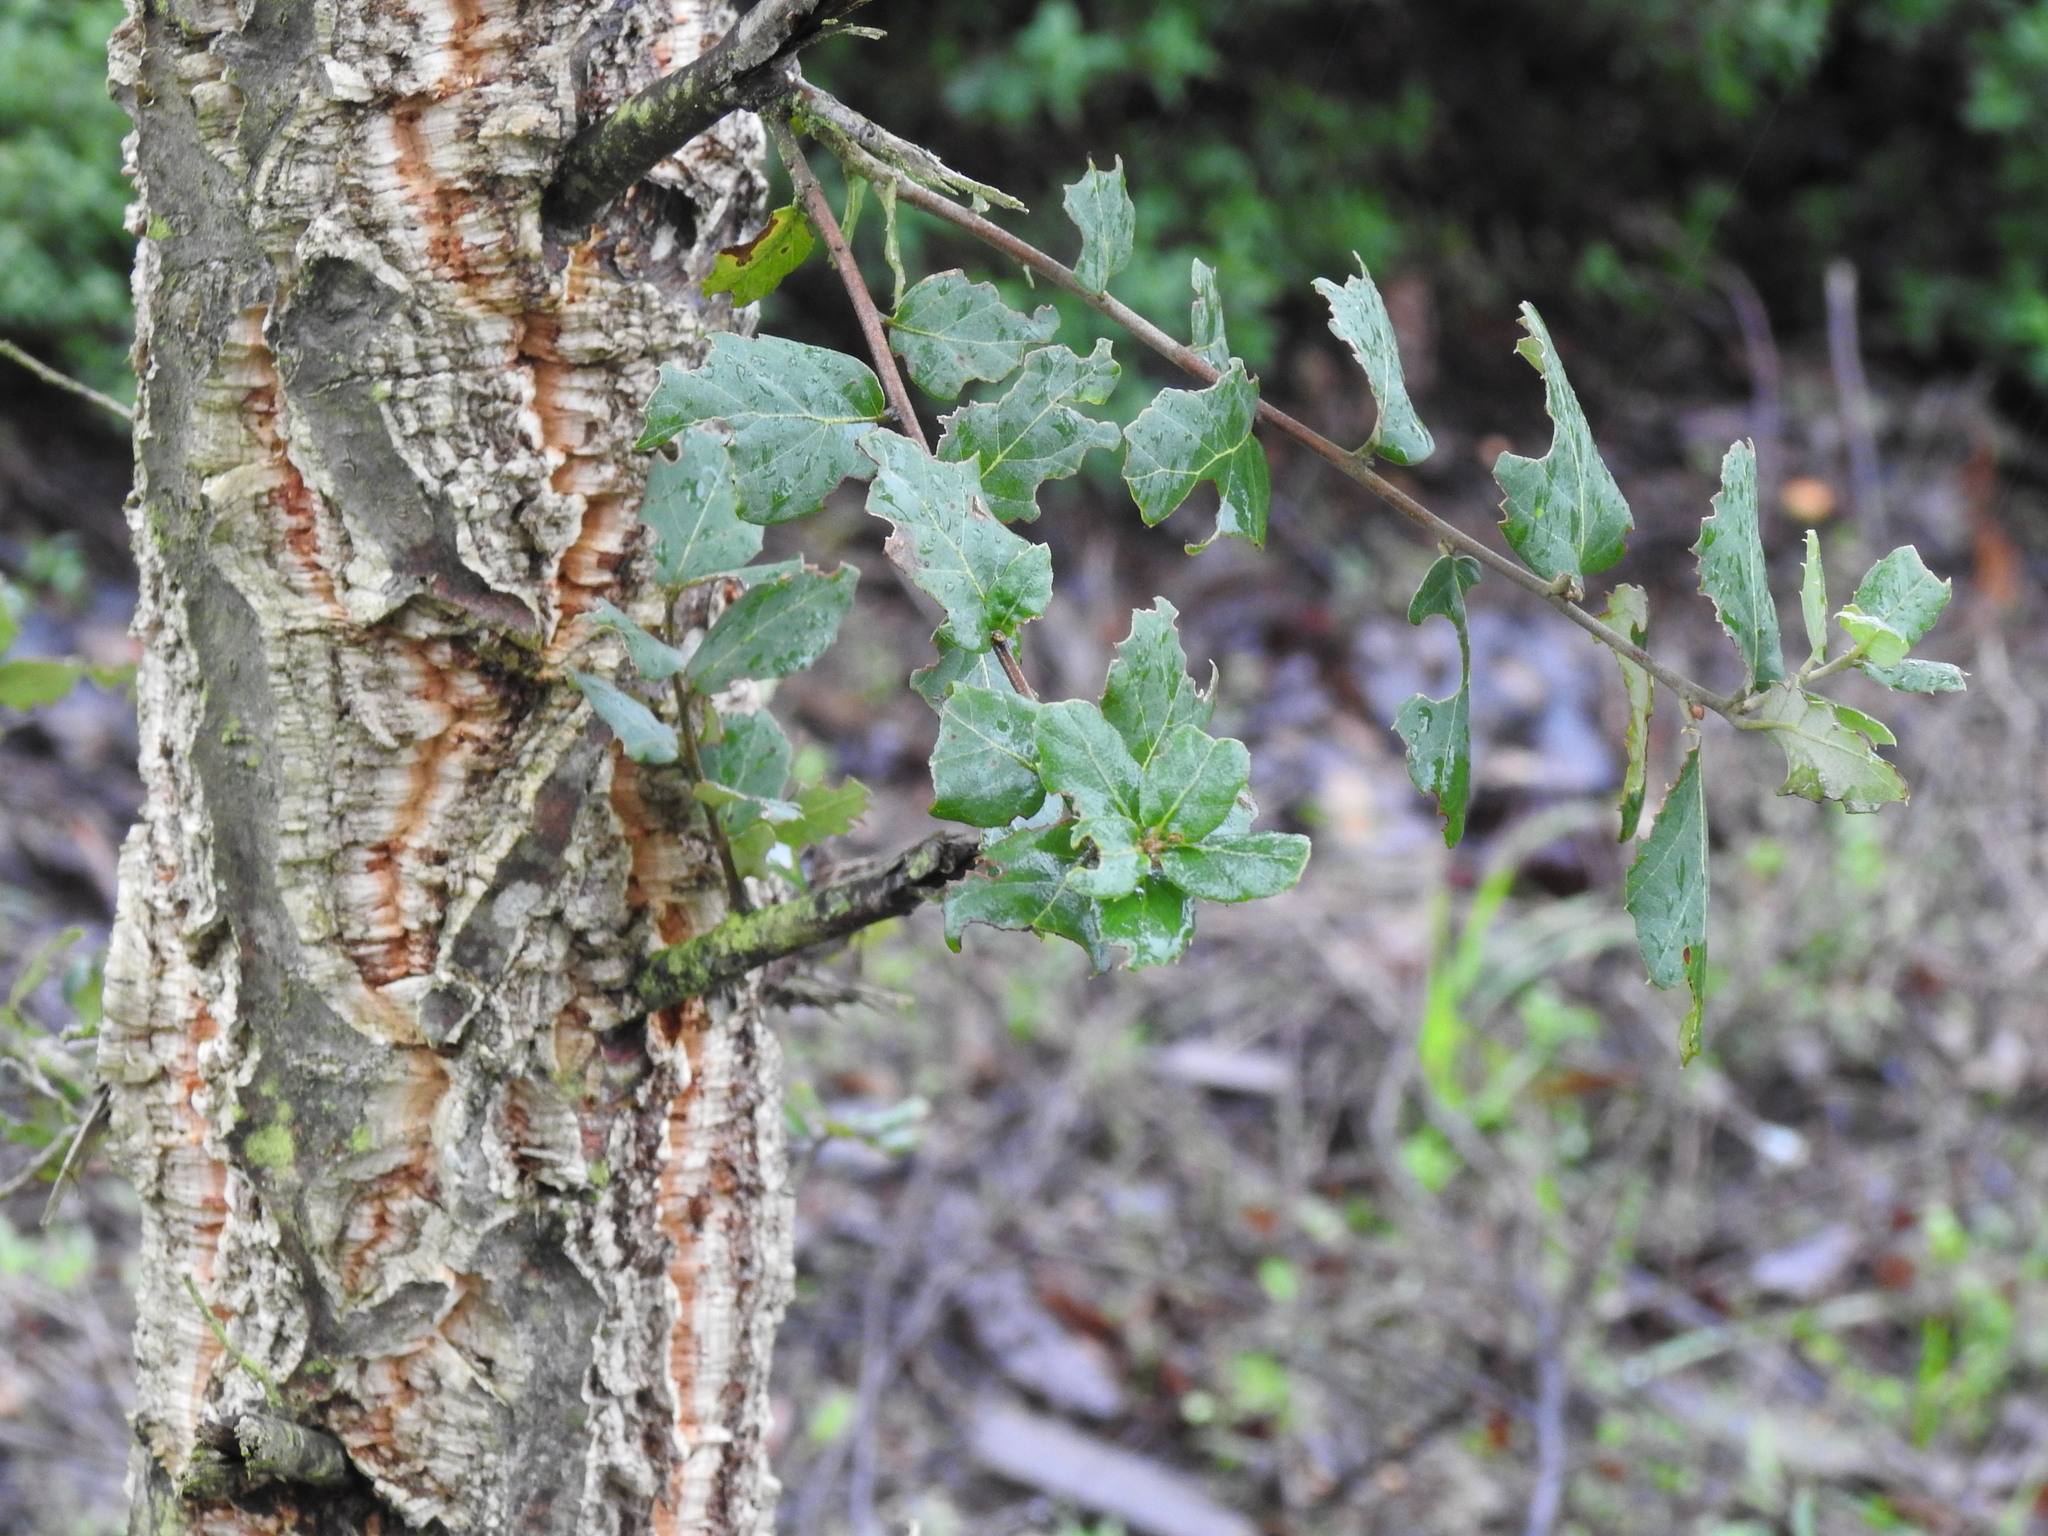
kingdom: Plantae
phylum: Tracheophyta
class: Magnoliopsida
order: Fagales
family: Fagaceae
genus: Quercus
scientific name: Quercus suber
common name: Cork oak
